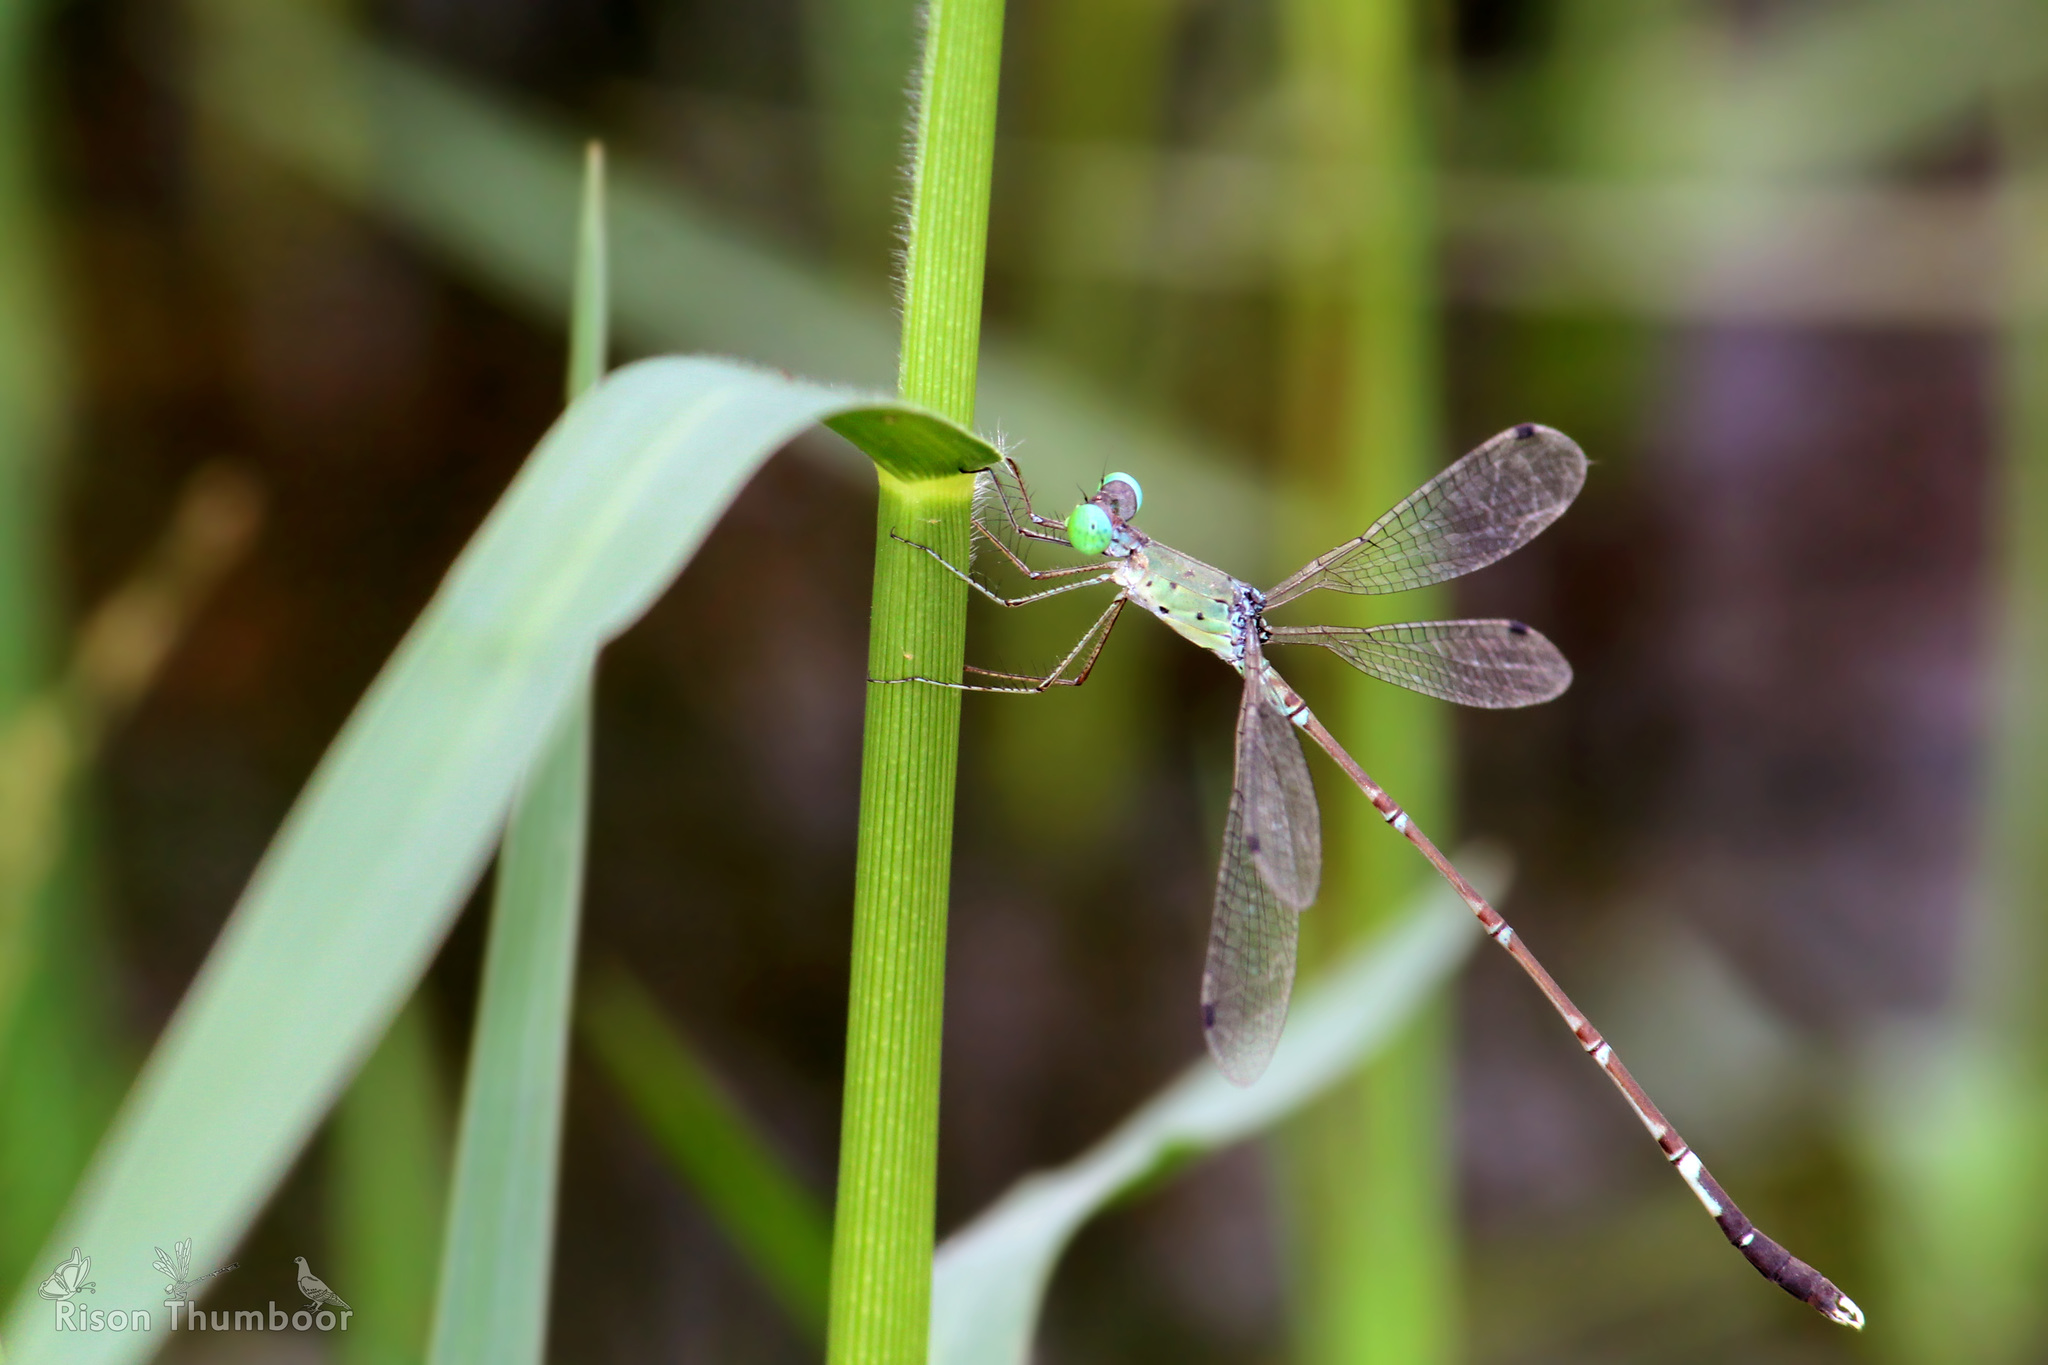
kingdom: Animalia
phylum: Arthropoda
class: Insecta
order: Odonata
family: Lestidae
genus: Platylestes
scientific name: Platylestes platystylus
